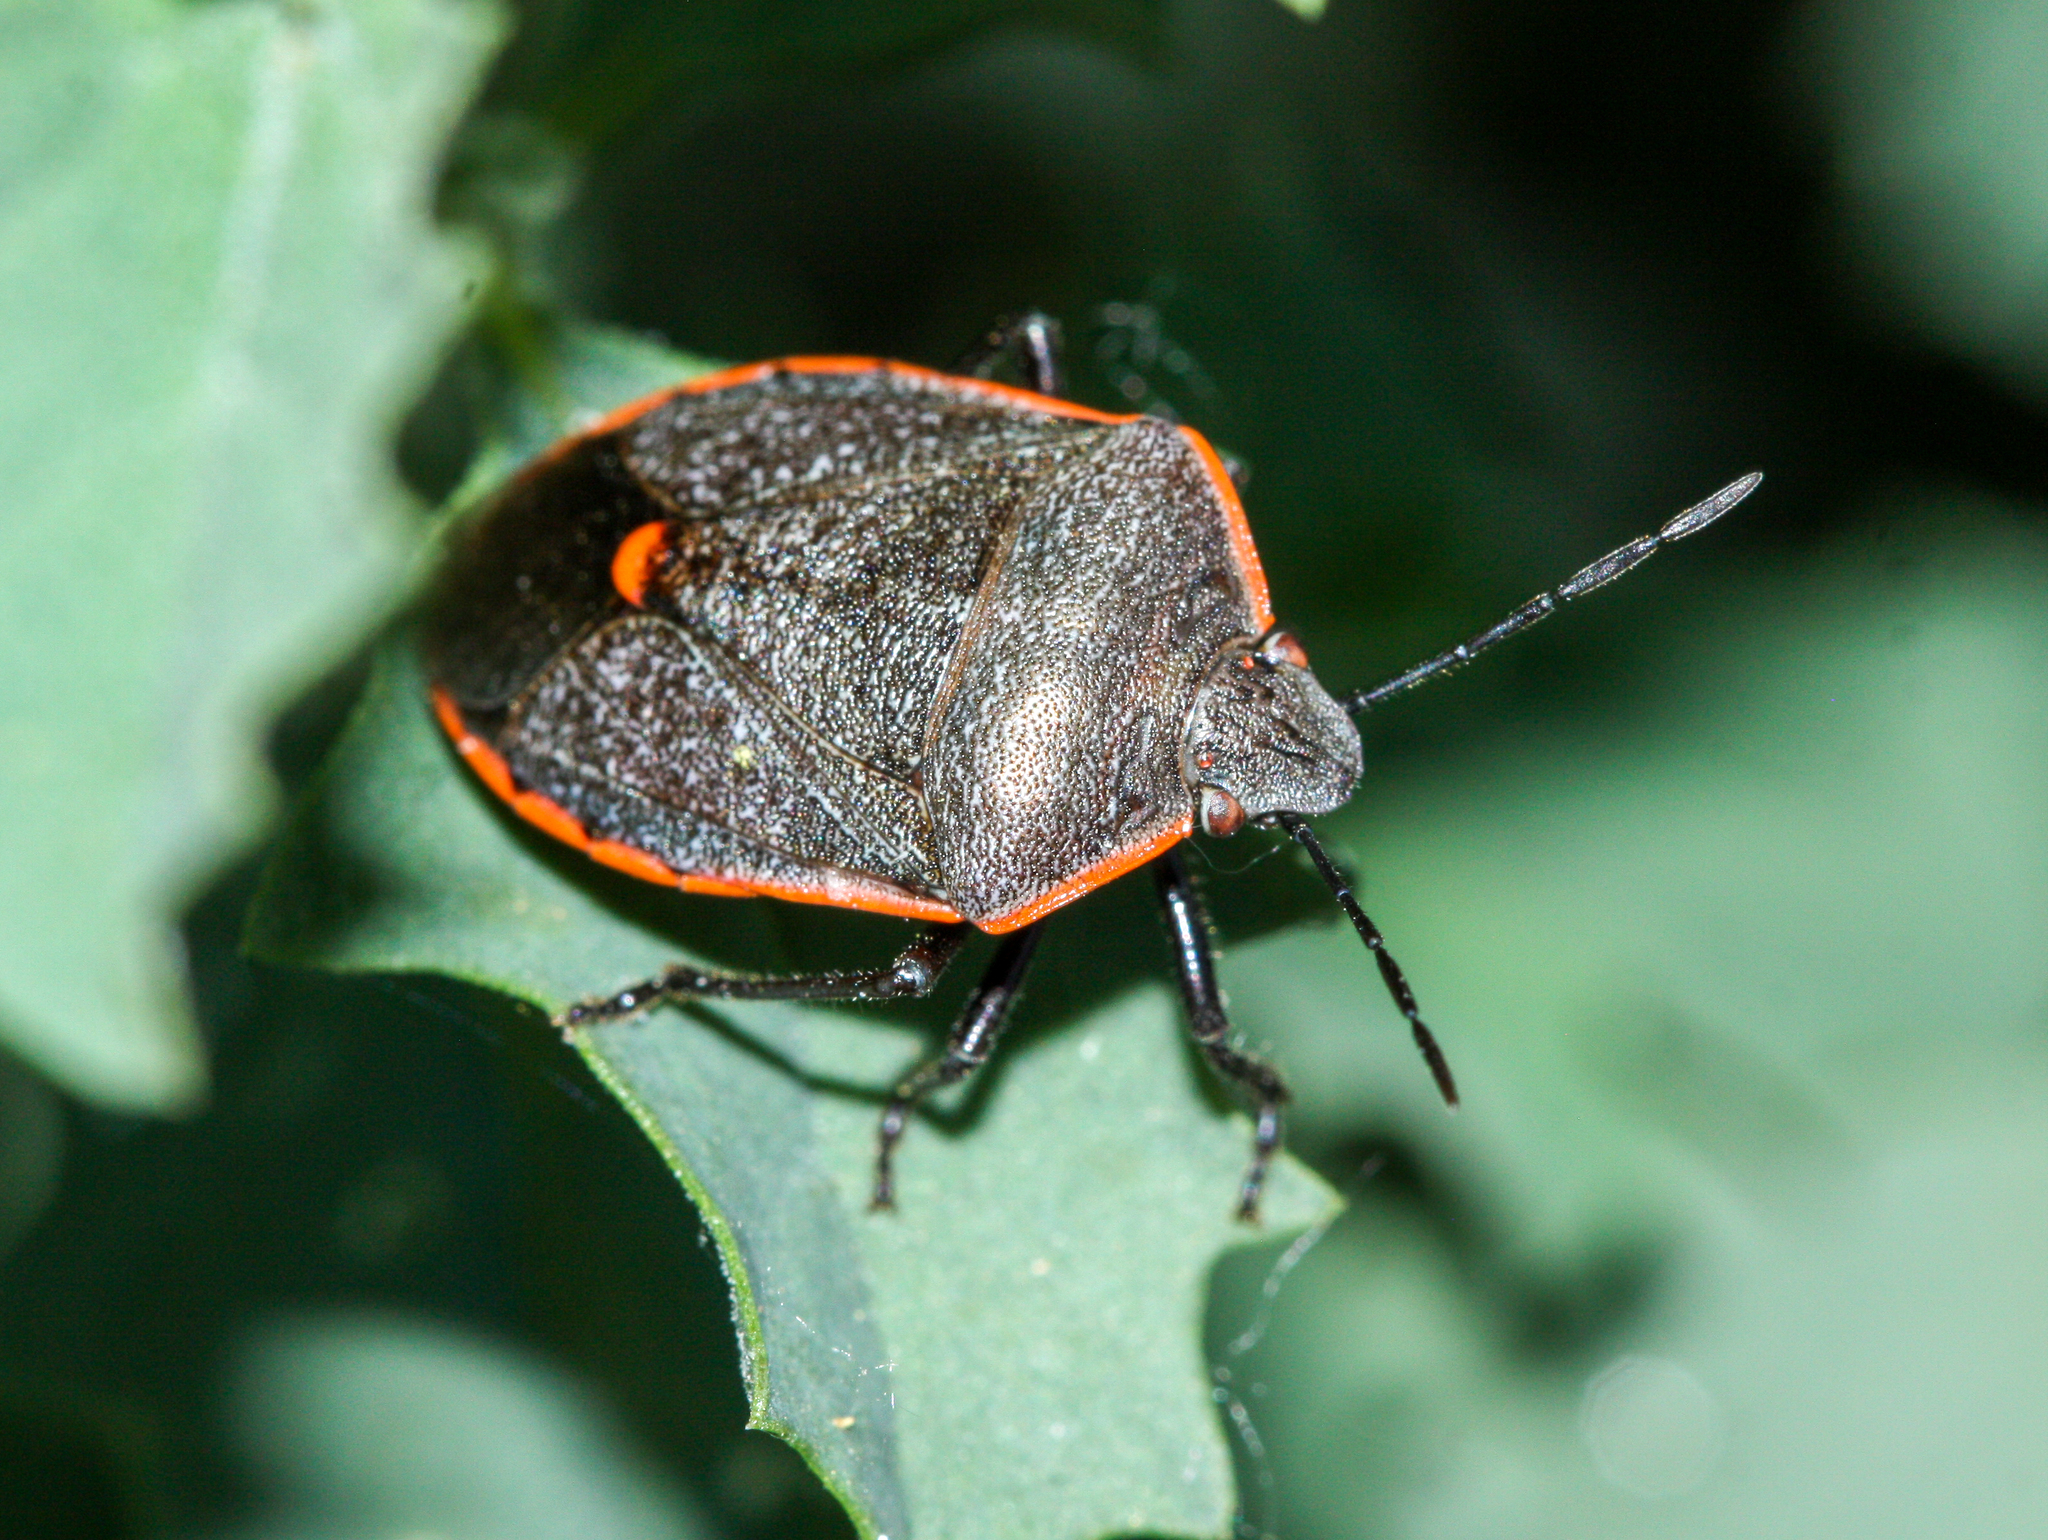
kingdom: Animalia
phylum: Arthropoda
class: Insecta
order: Hemiptera
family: Pentatomidae
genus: Chlorochroa
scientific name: Chlorochroa ligata
